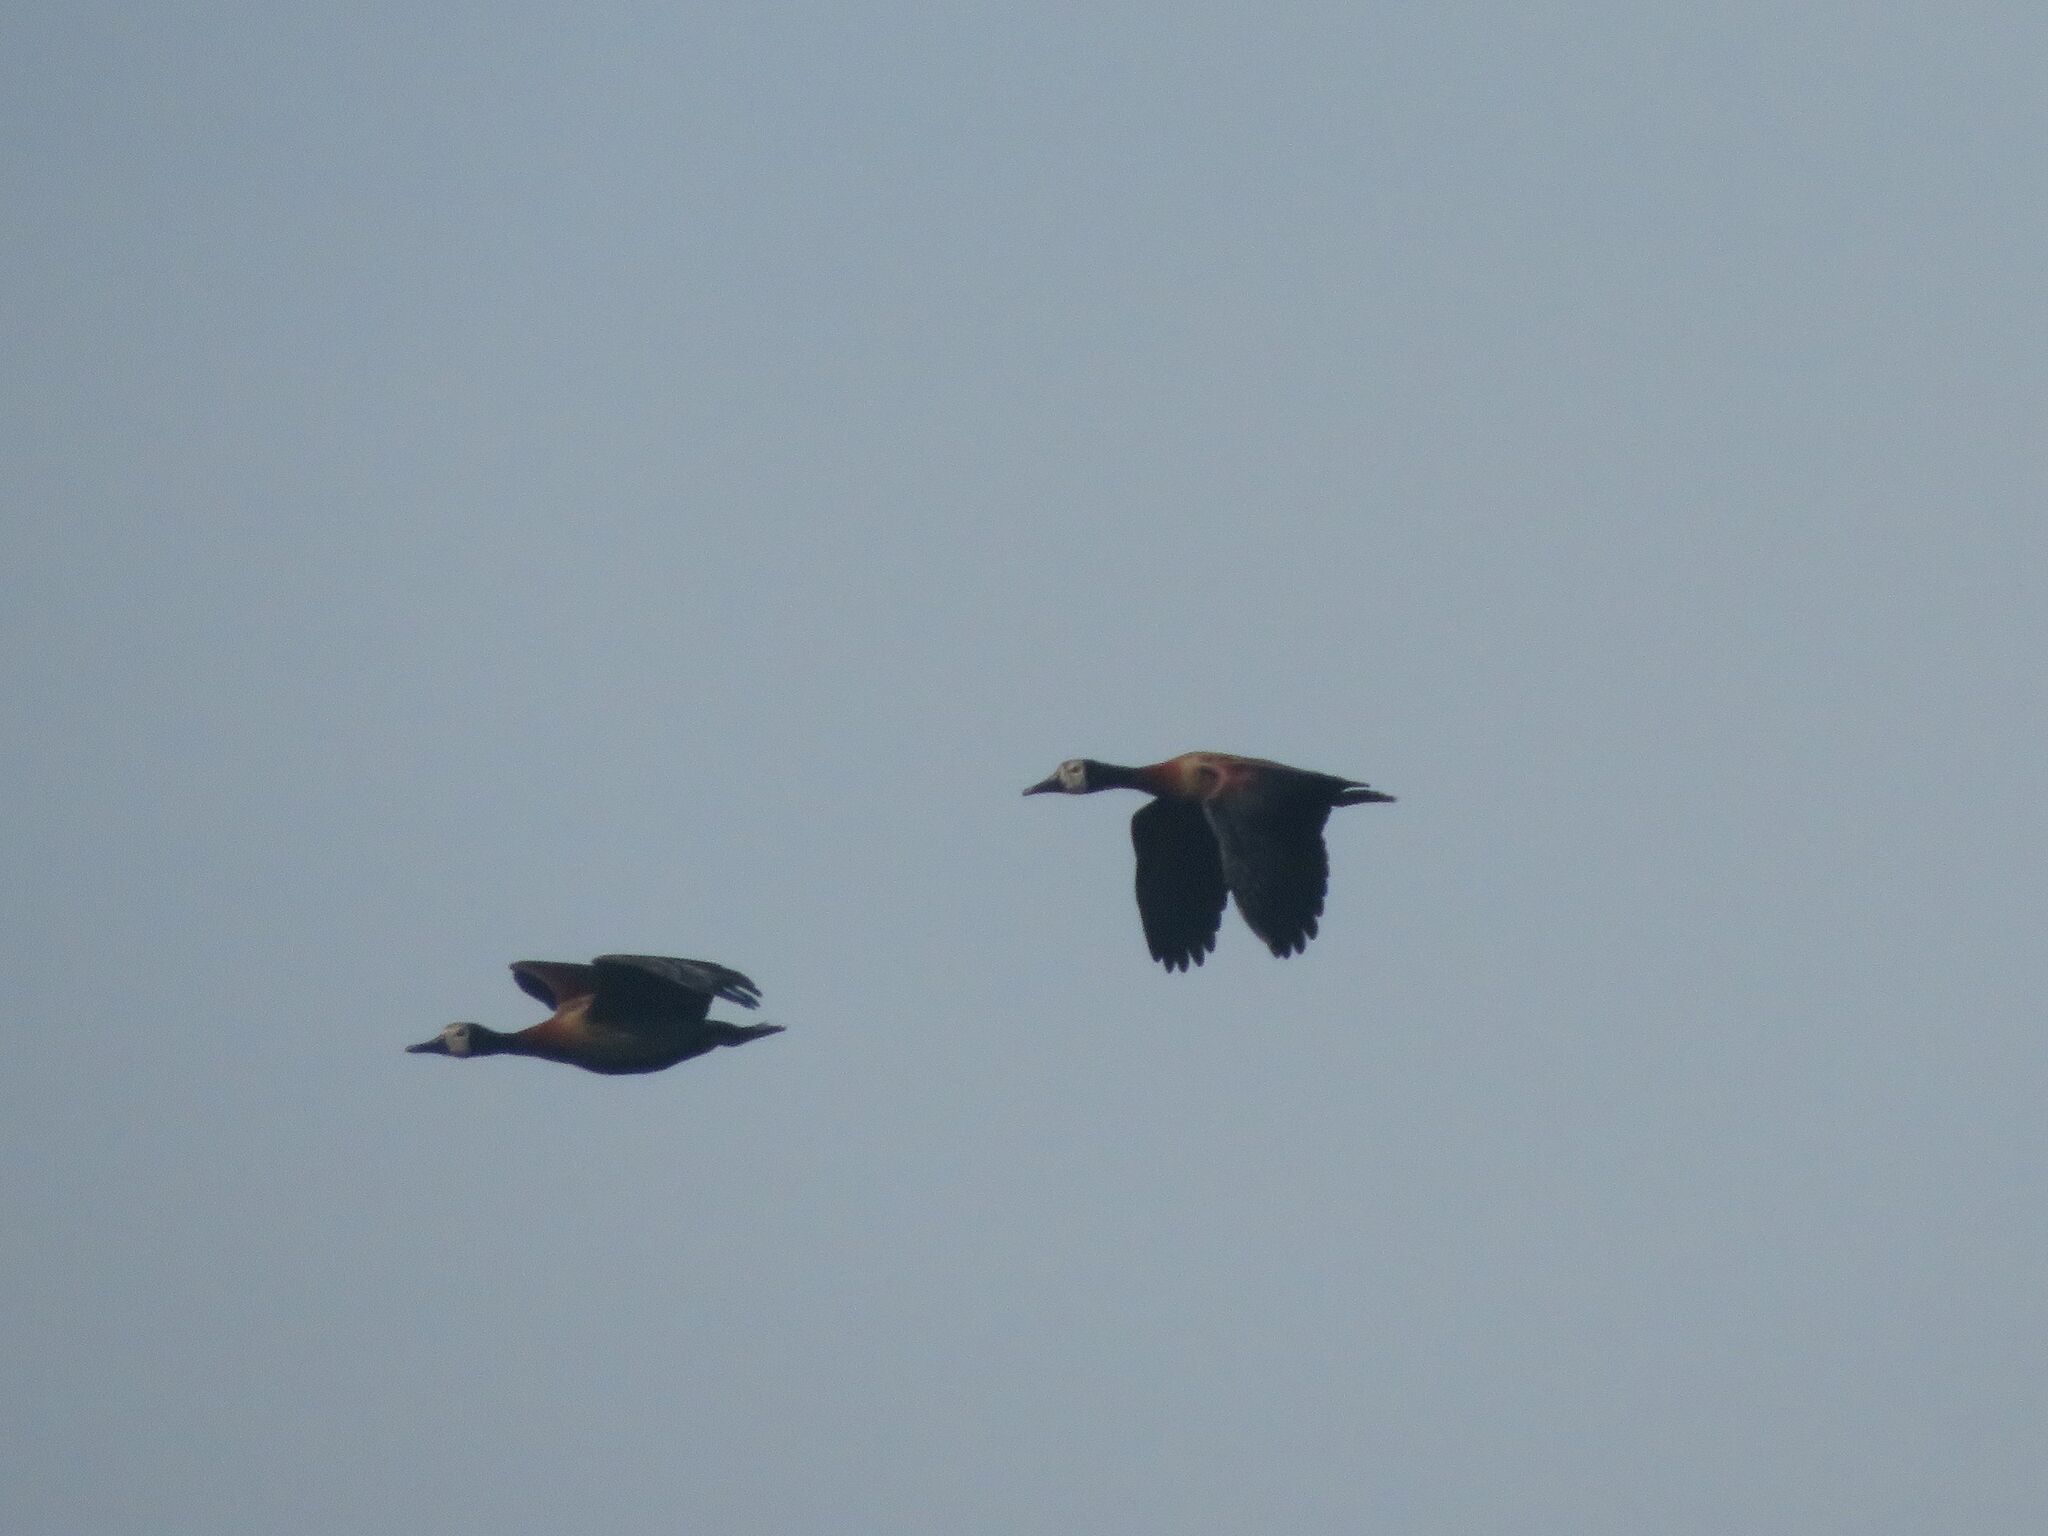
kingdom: Animalia
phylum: Chordata
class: Aves
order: Anseriformes
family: Anatidae
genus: Dendrocygna
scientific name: Dendrocygna viduata
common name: White-faced whistling duck
